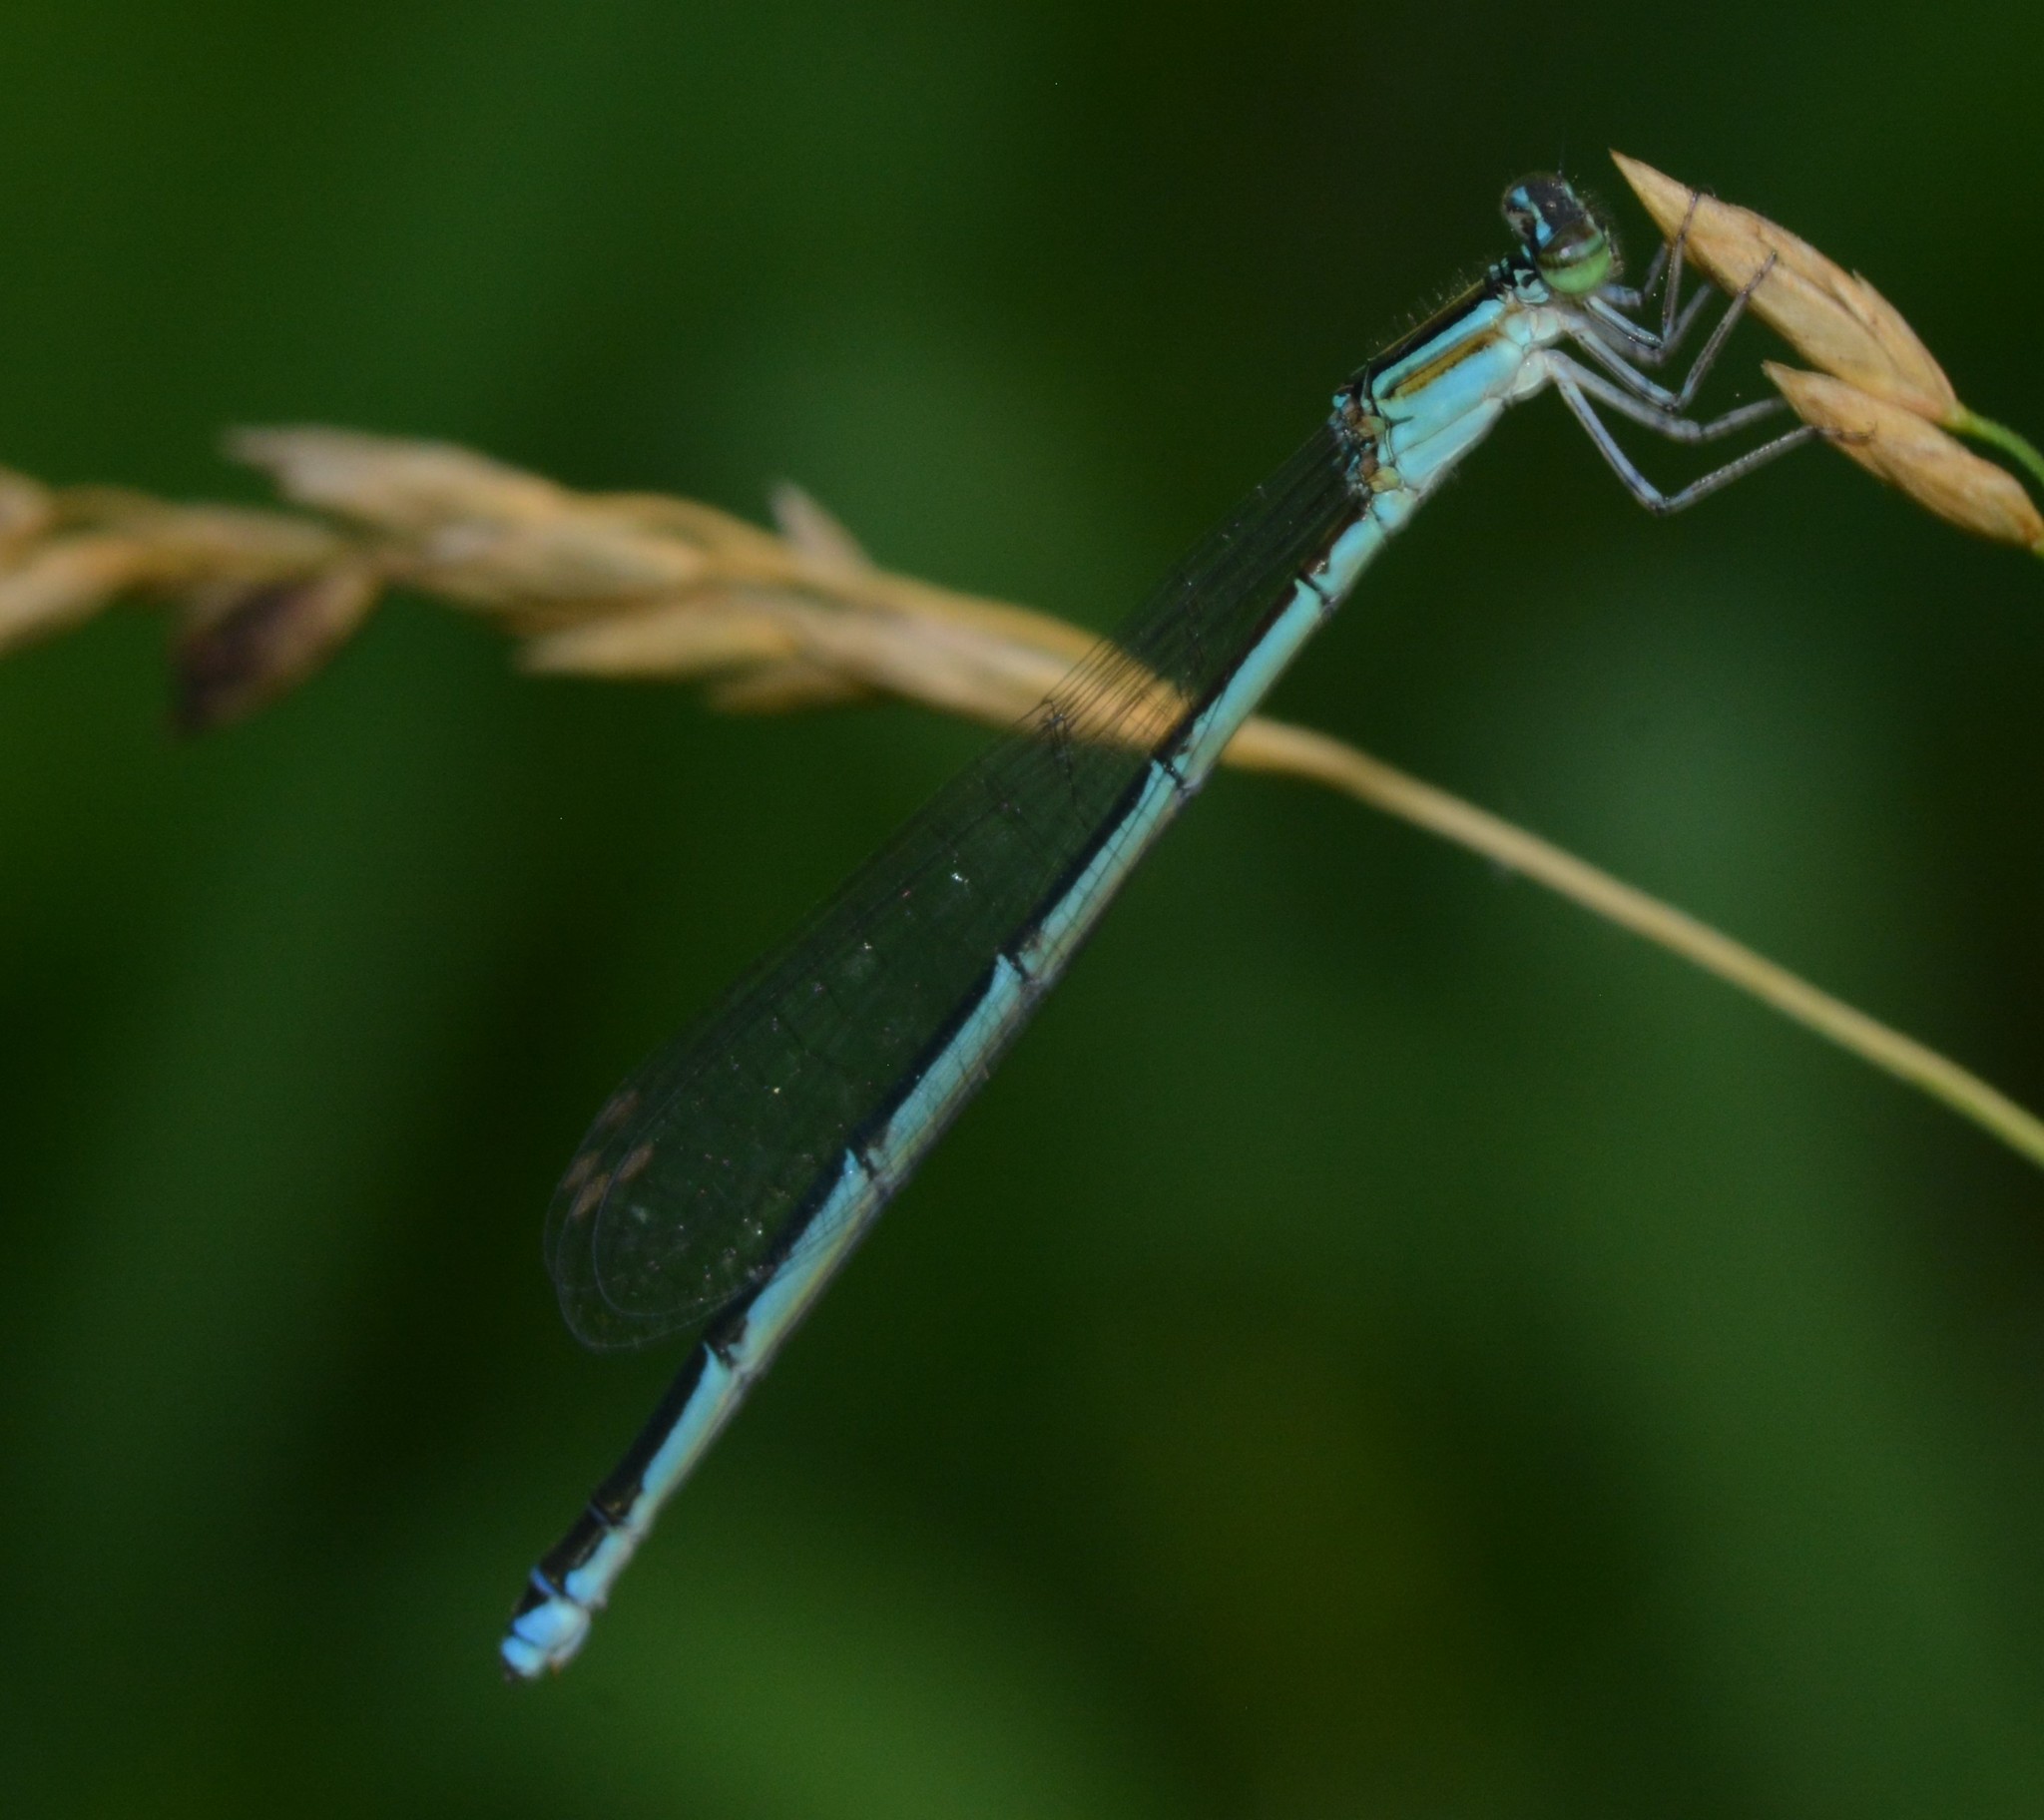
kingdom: Animalia
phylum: Arthropoda
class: Insecta
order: Odonata
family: Coenagrionidae
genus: Enallagma
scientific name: Enallagma exsulans
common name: Stream bluet
